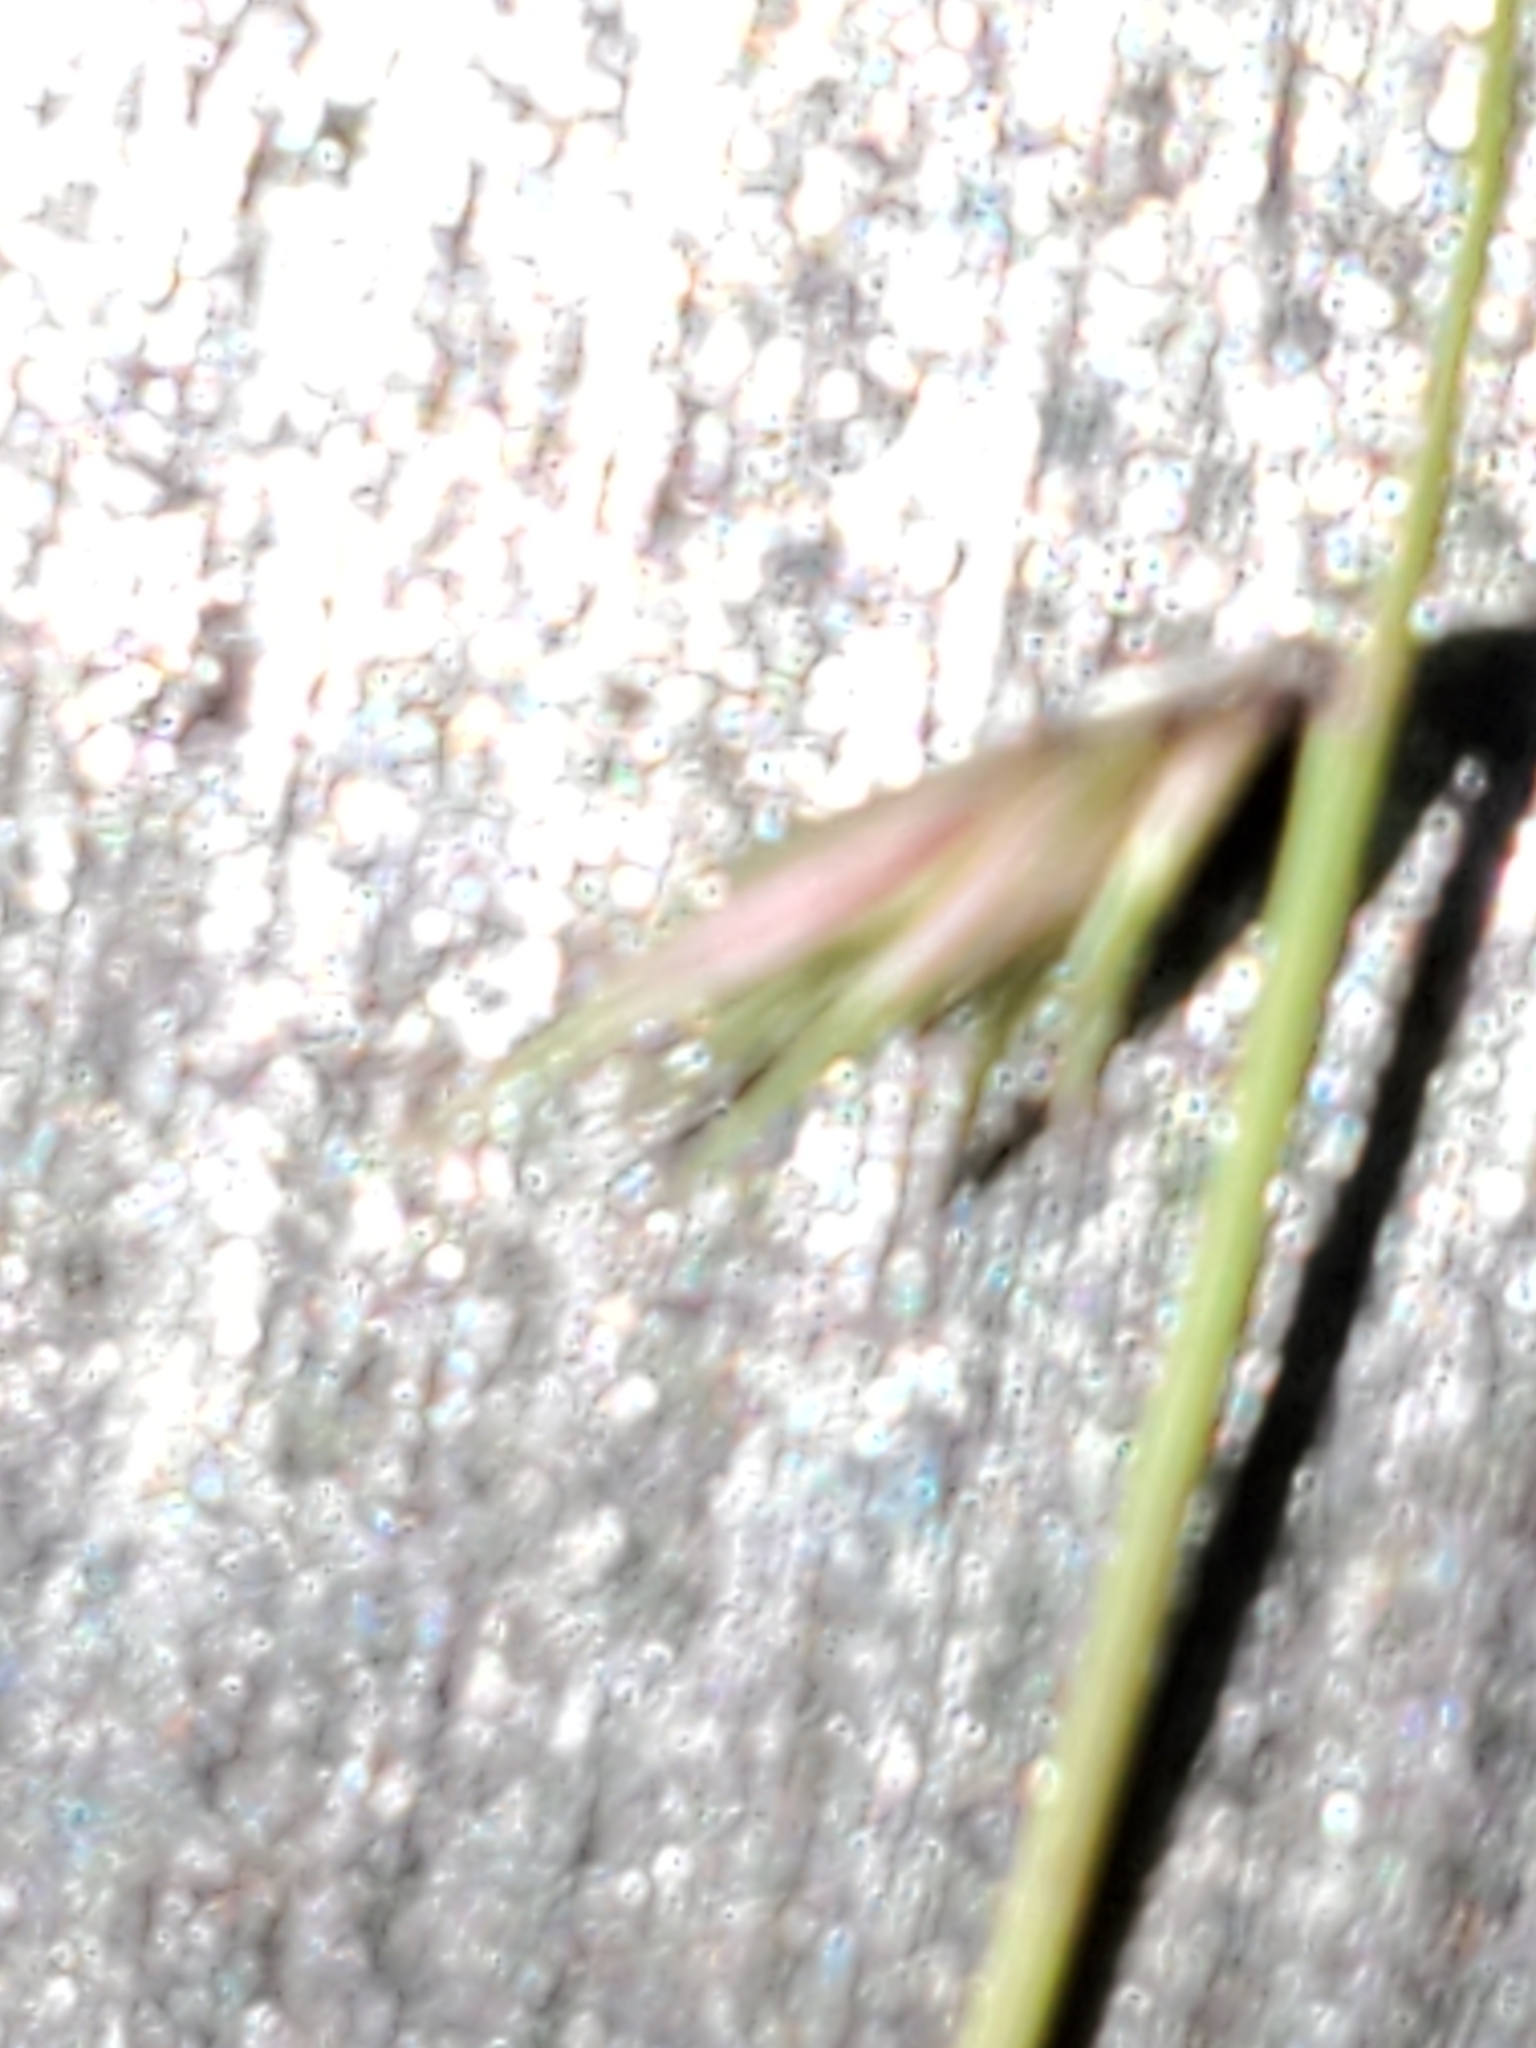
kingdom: Plantae
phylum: Tracheophyta
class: Liliopsida
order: Poales
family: Poaceae
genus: Bouteloua
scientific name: Bouteloua rigidiseta
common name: Texas grama
